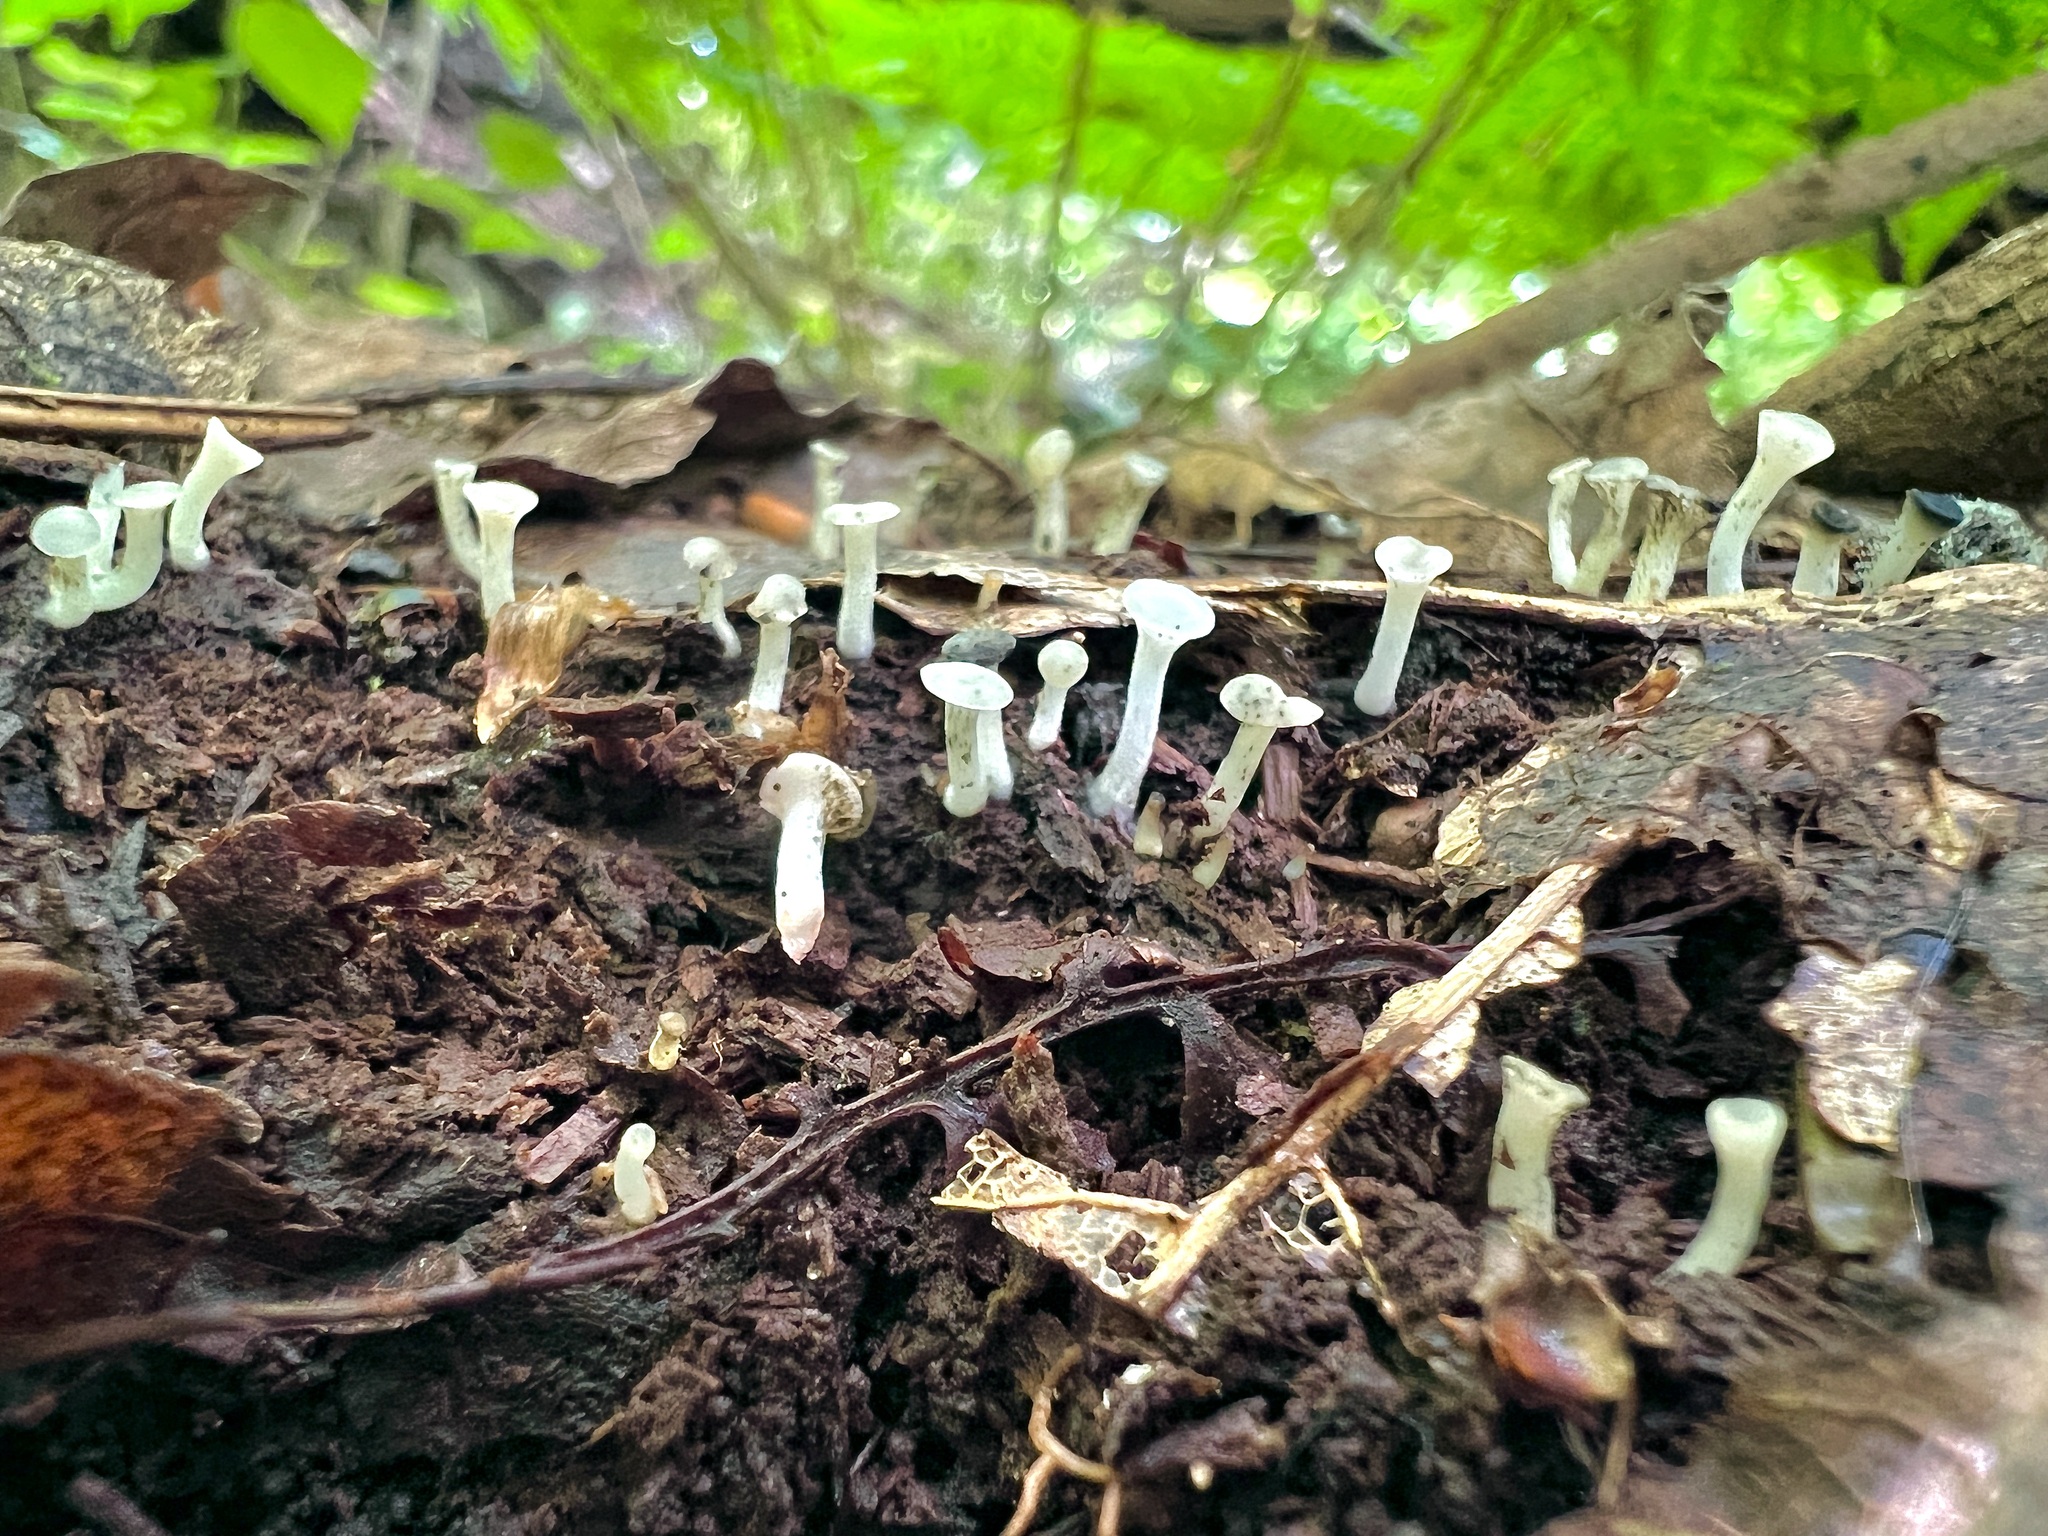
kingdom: Fungi
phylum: Basidiomycota
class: Agaricomycetes
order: Agaricales
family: Tricholomataceae
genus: Delicatula
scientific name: Delicatula integrella
